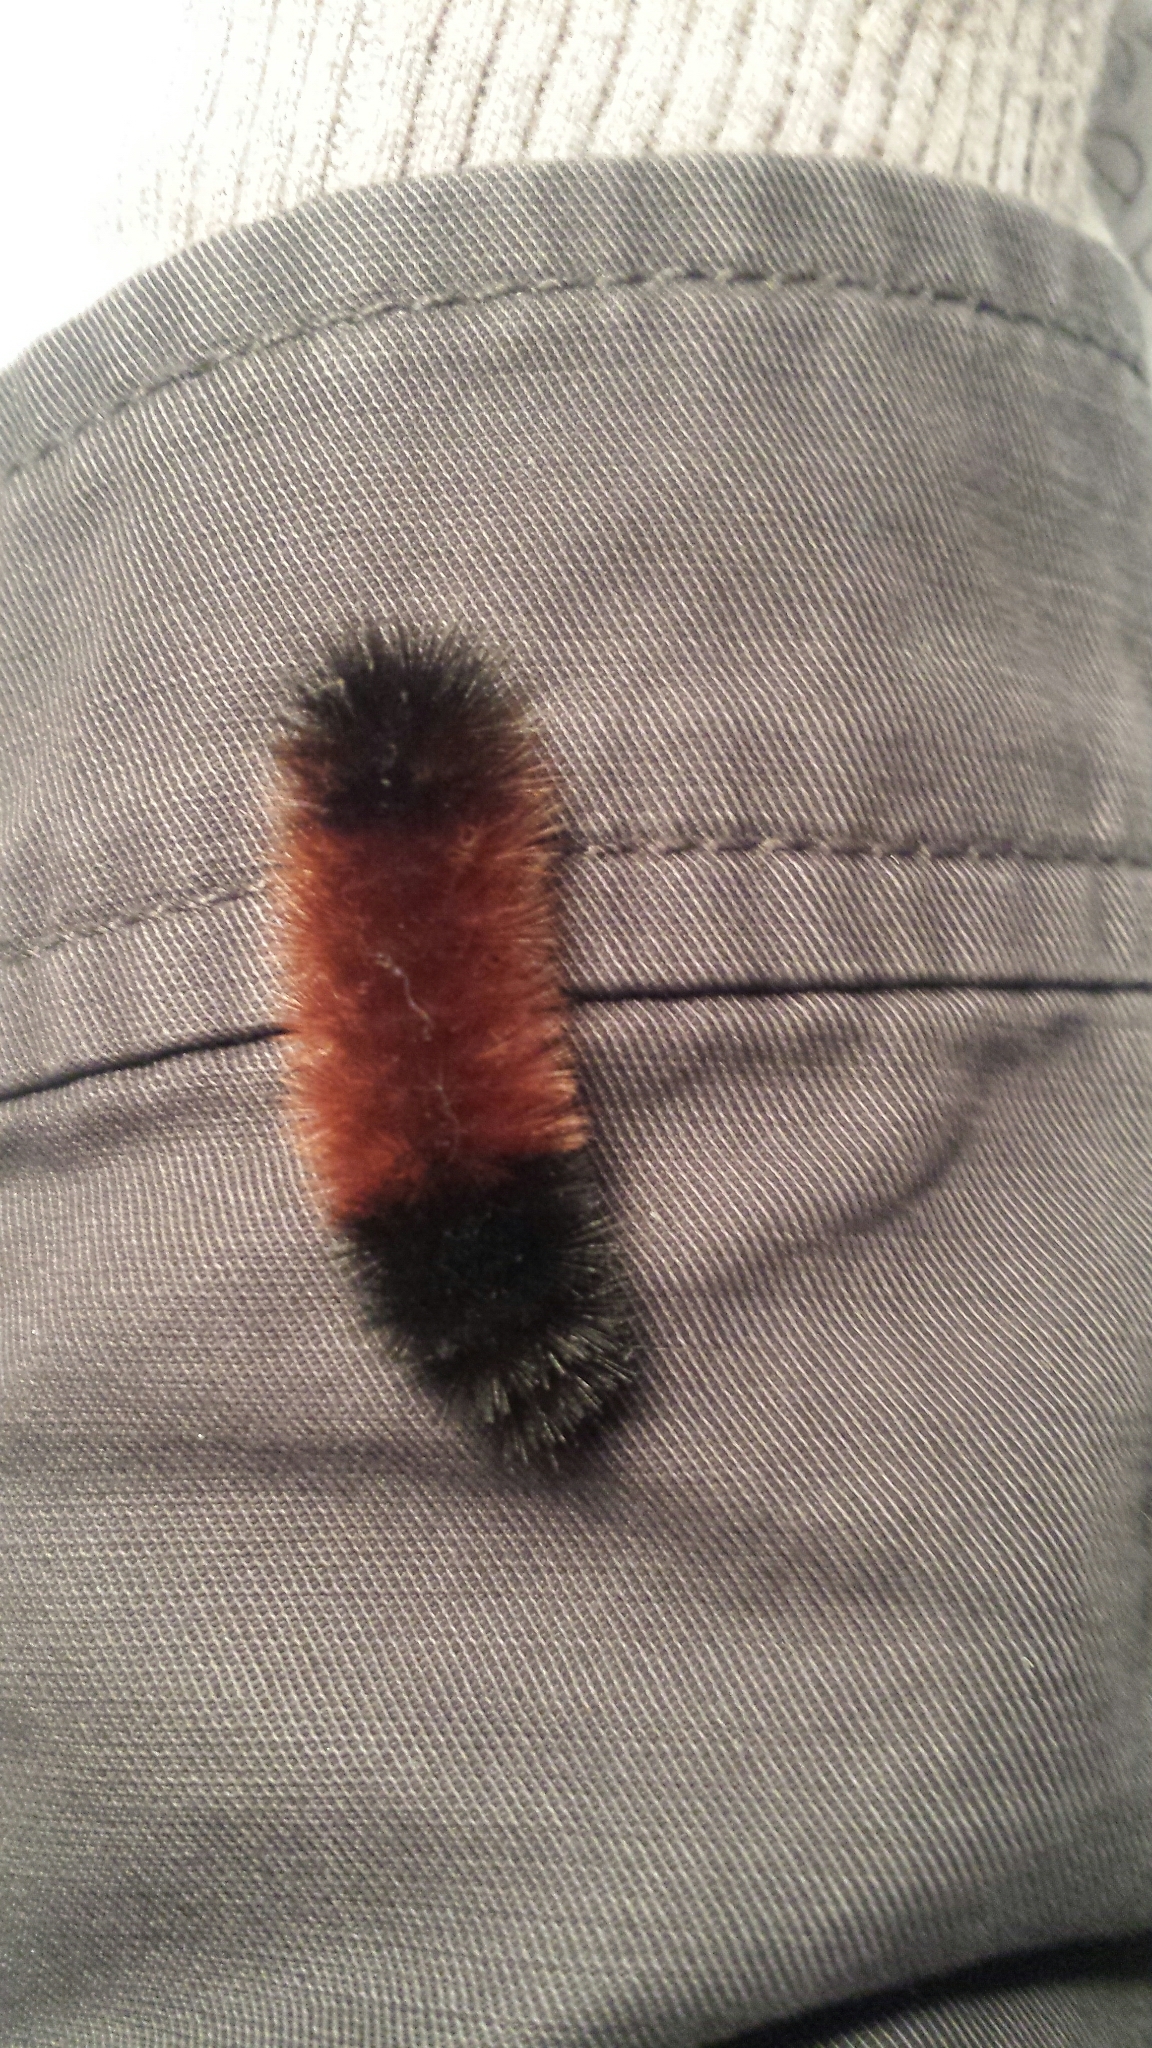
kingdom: Animalia
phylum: Arthropoda
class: Insecta
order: Lepidoptera
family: Erebidae
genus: Pyrrharctia
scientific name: Pyrrharctia isabella
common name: Isabella tiger moth
